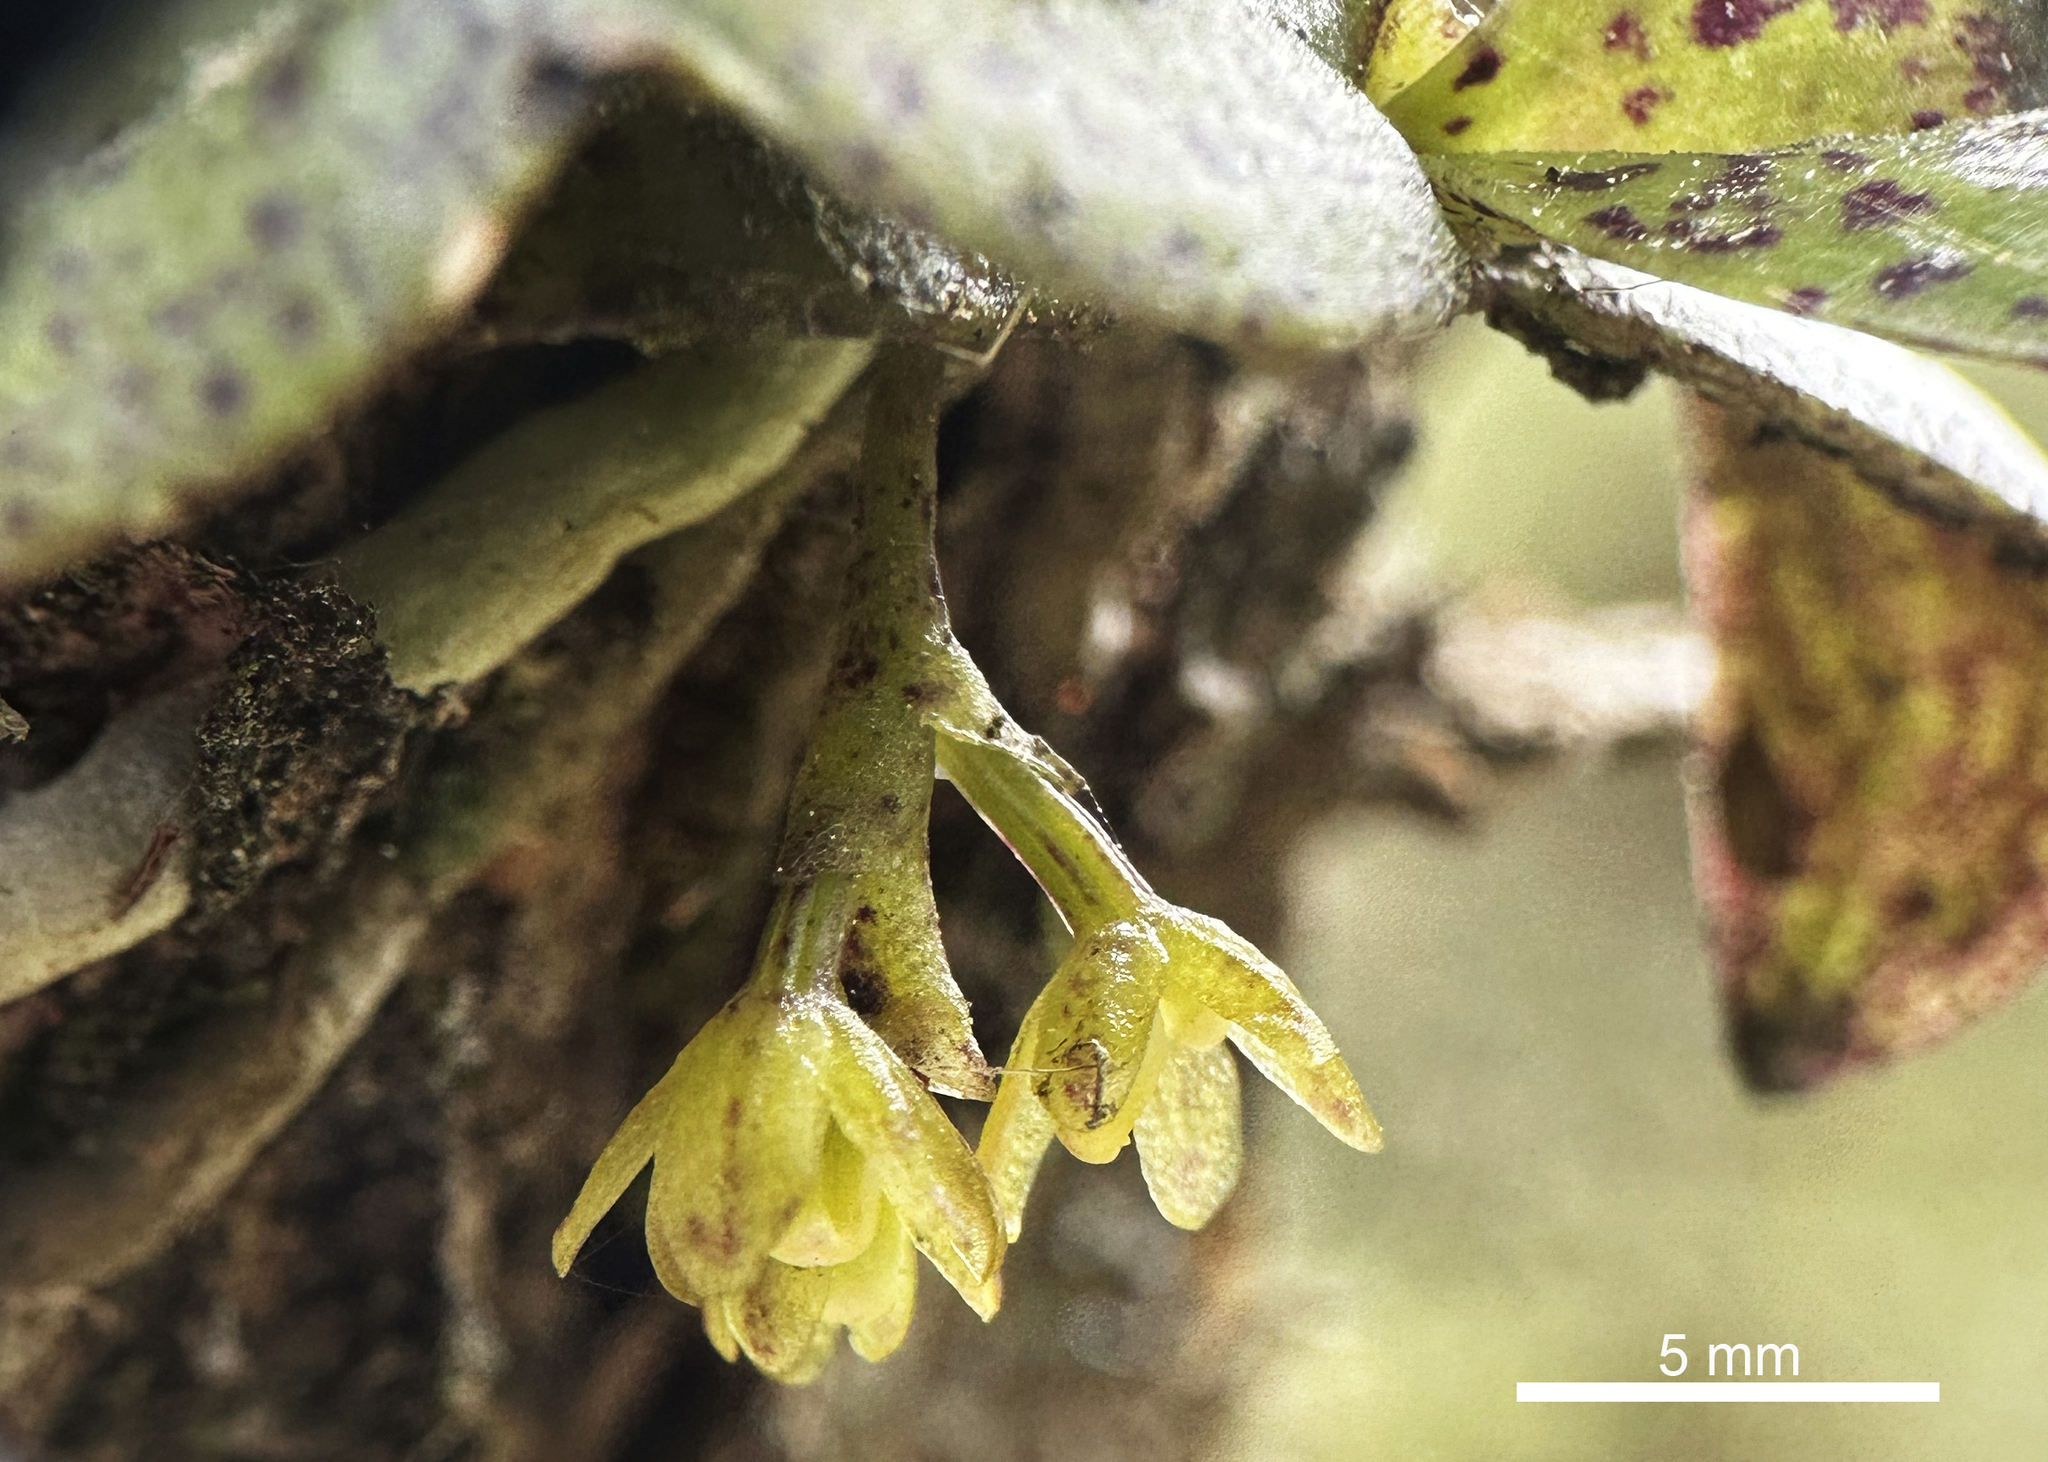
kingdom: Plantae
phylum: Tracheophyta
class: Liliopsida
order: Asparagales
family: Orchidaceae
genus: Drymoanthus
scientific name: Drymoanthus flavus
